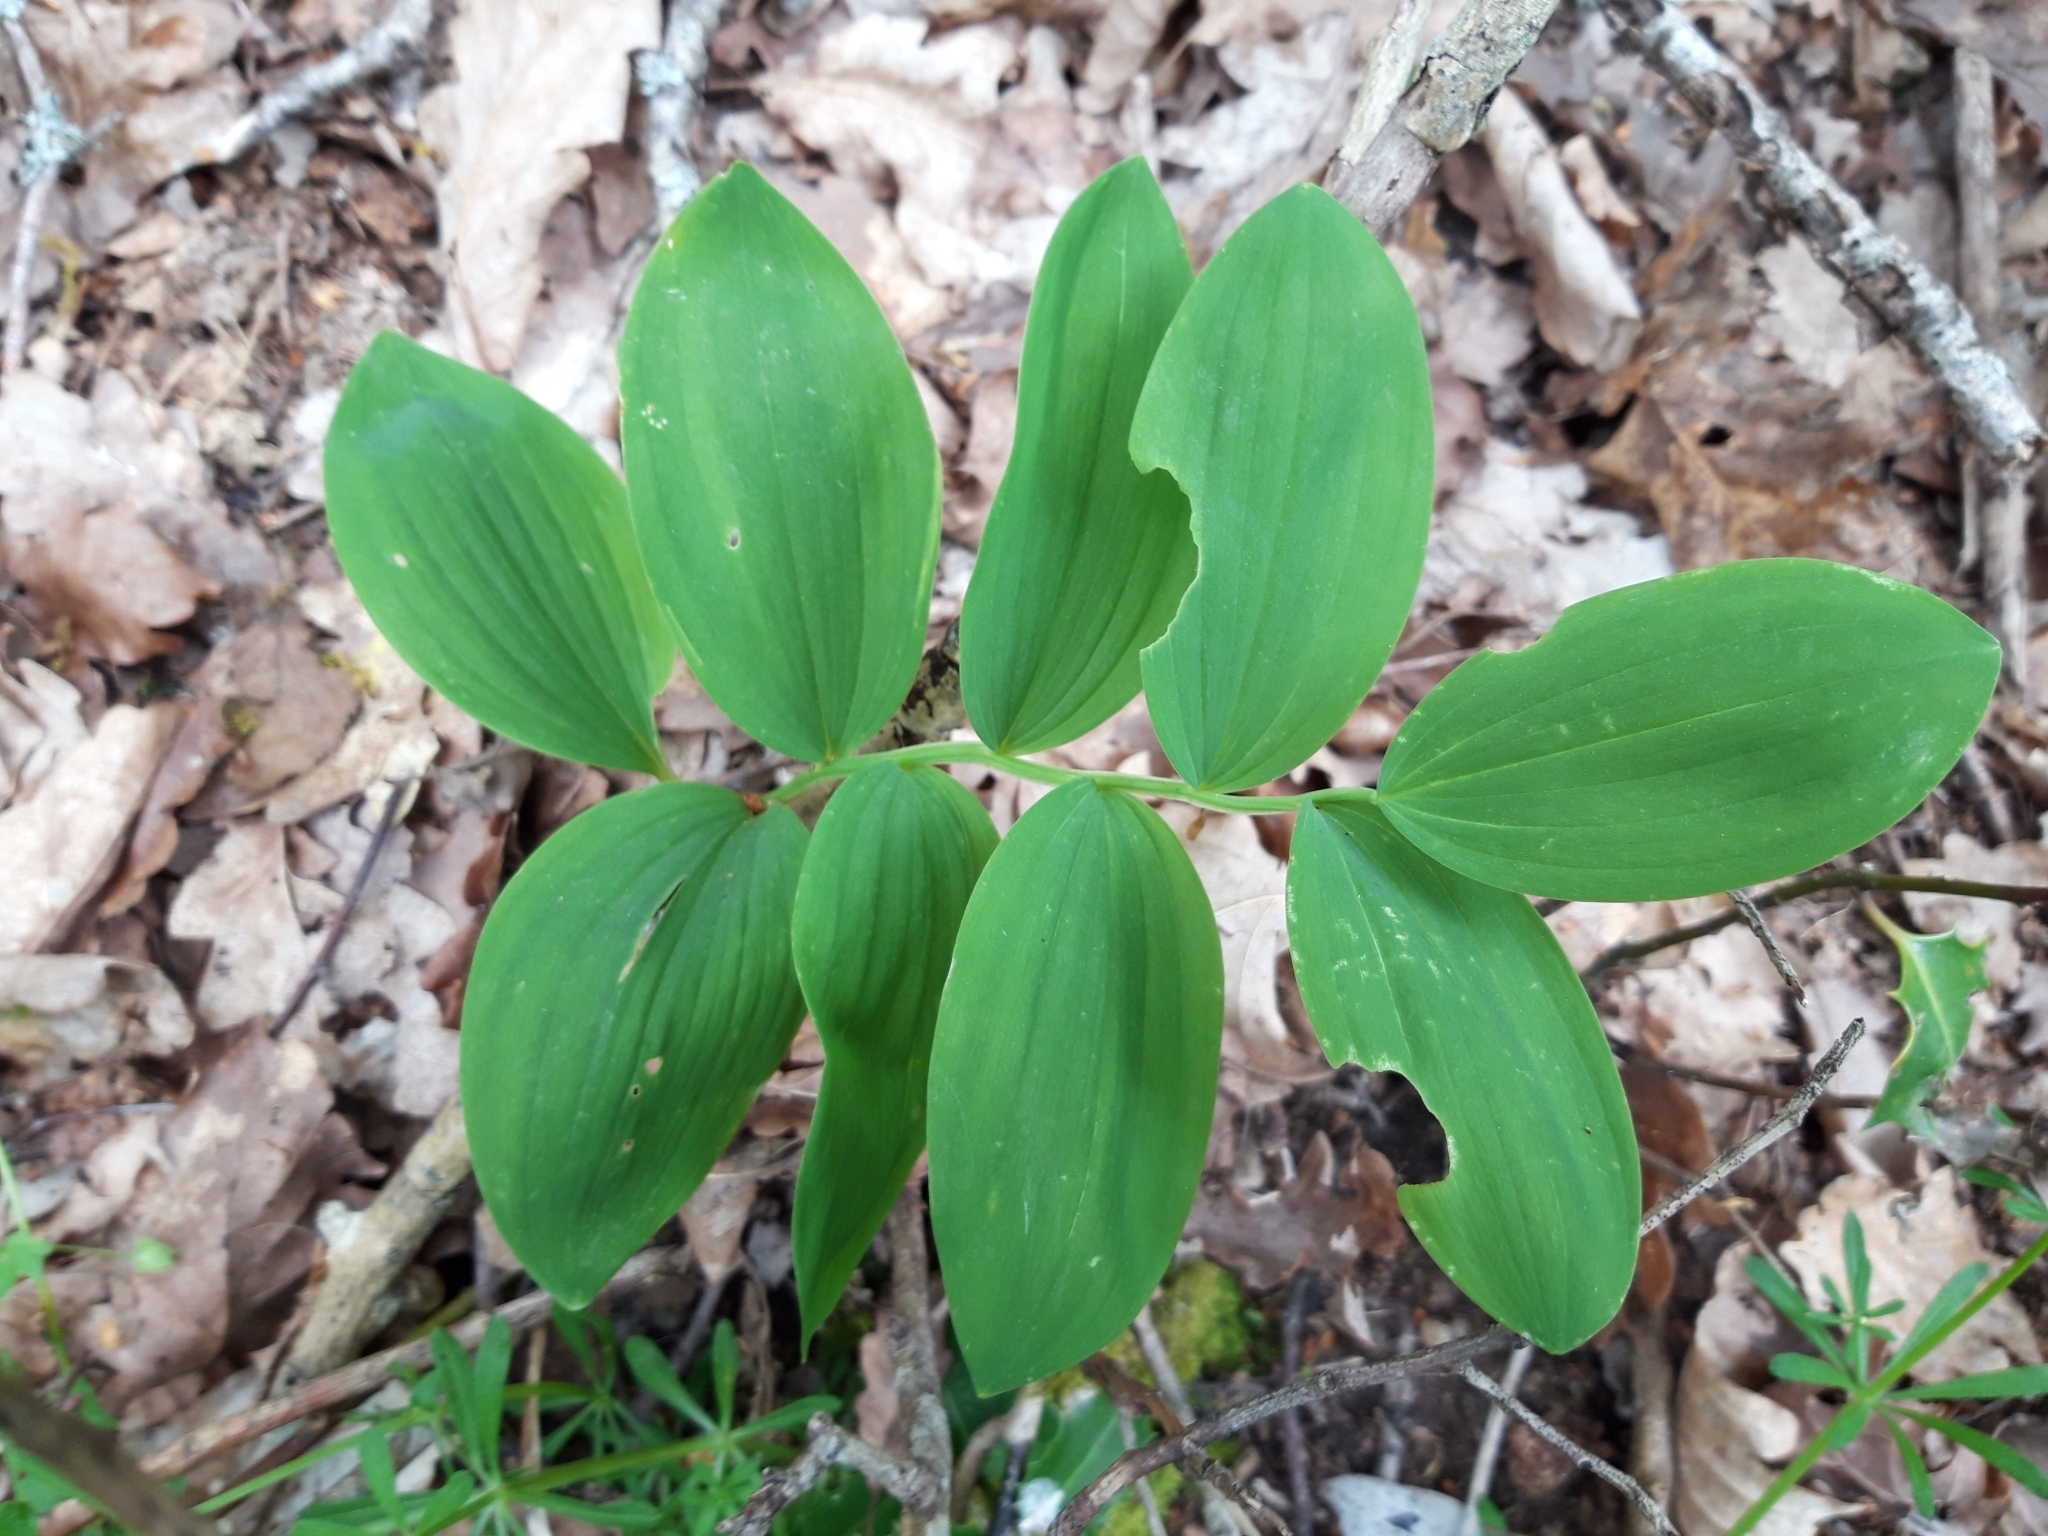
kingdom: Plantae
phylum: Tracheophyta
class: Liliopsida
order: Asparagales
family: Asparagaceae
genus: Polygonatum
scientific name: Polygonatum odoratum
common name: Angular solomon's-seal
